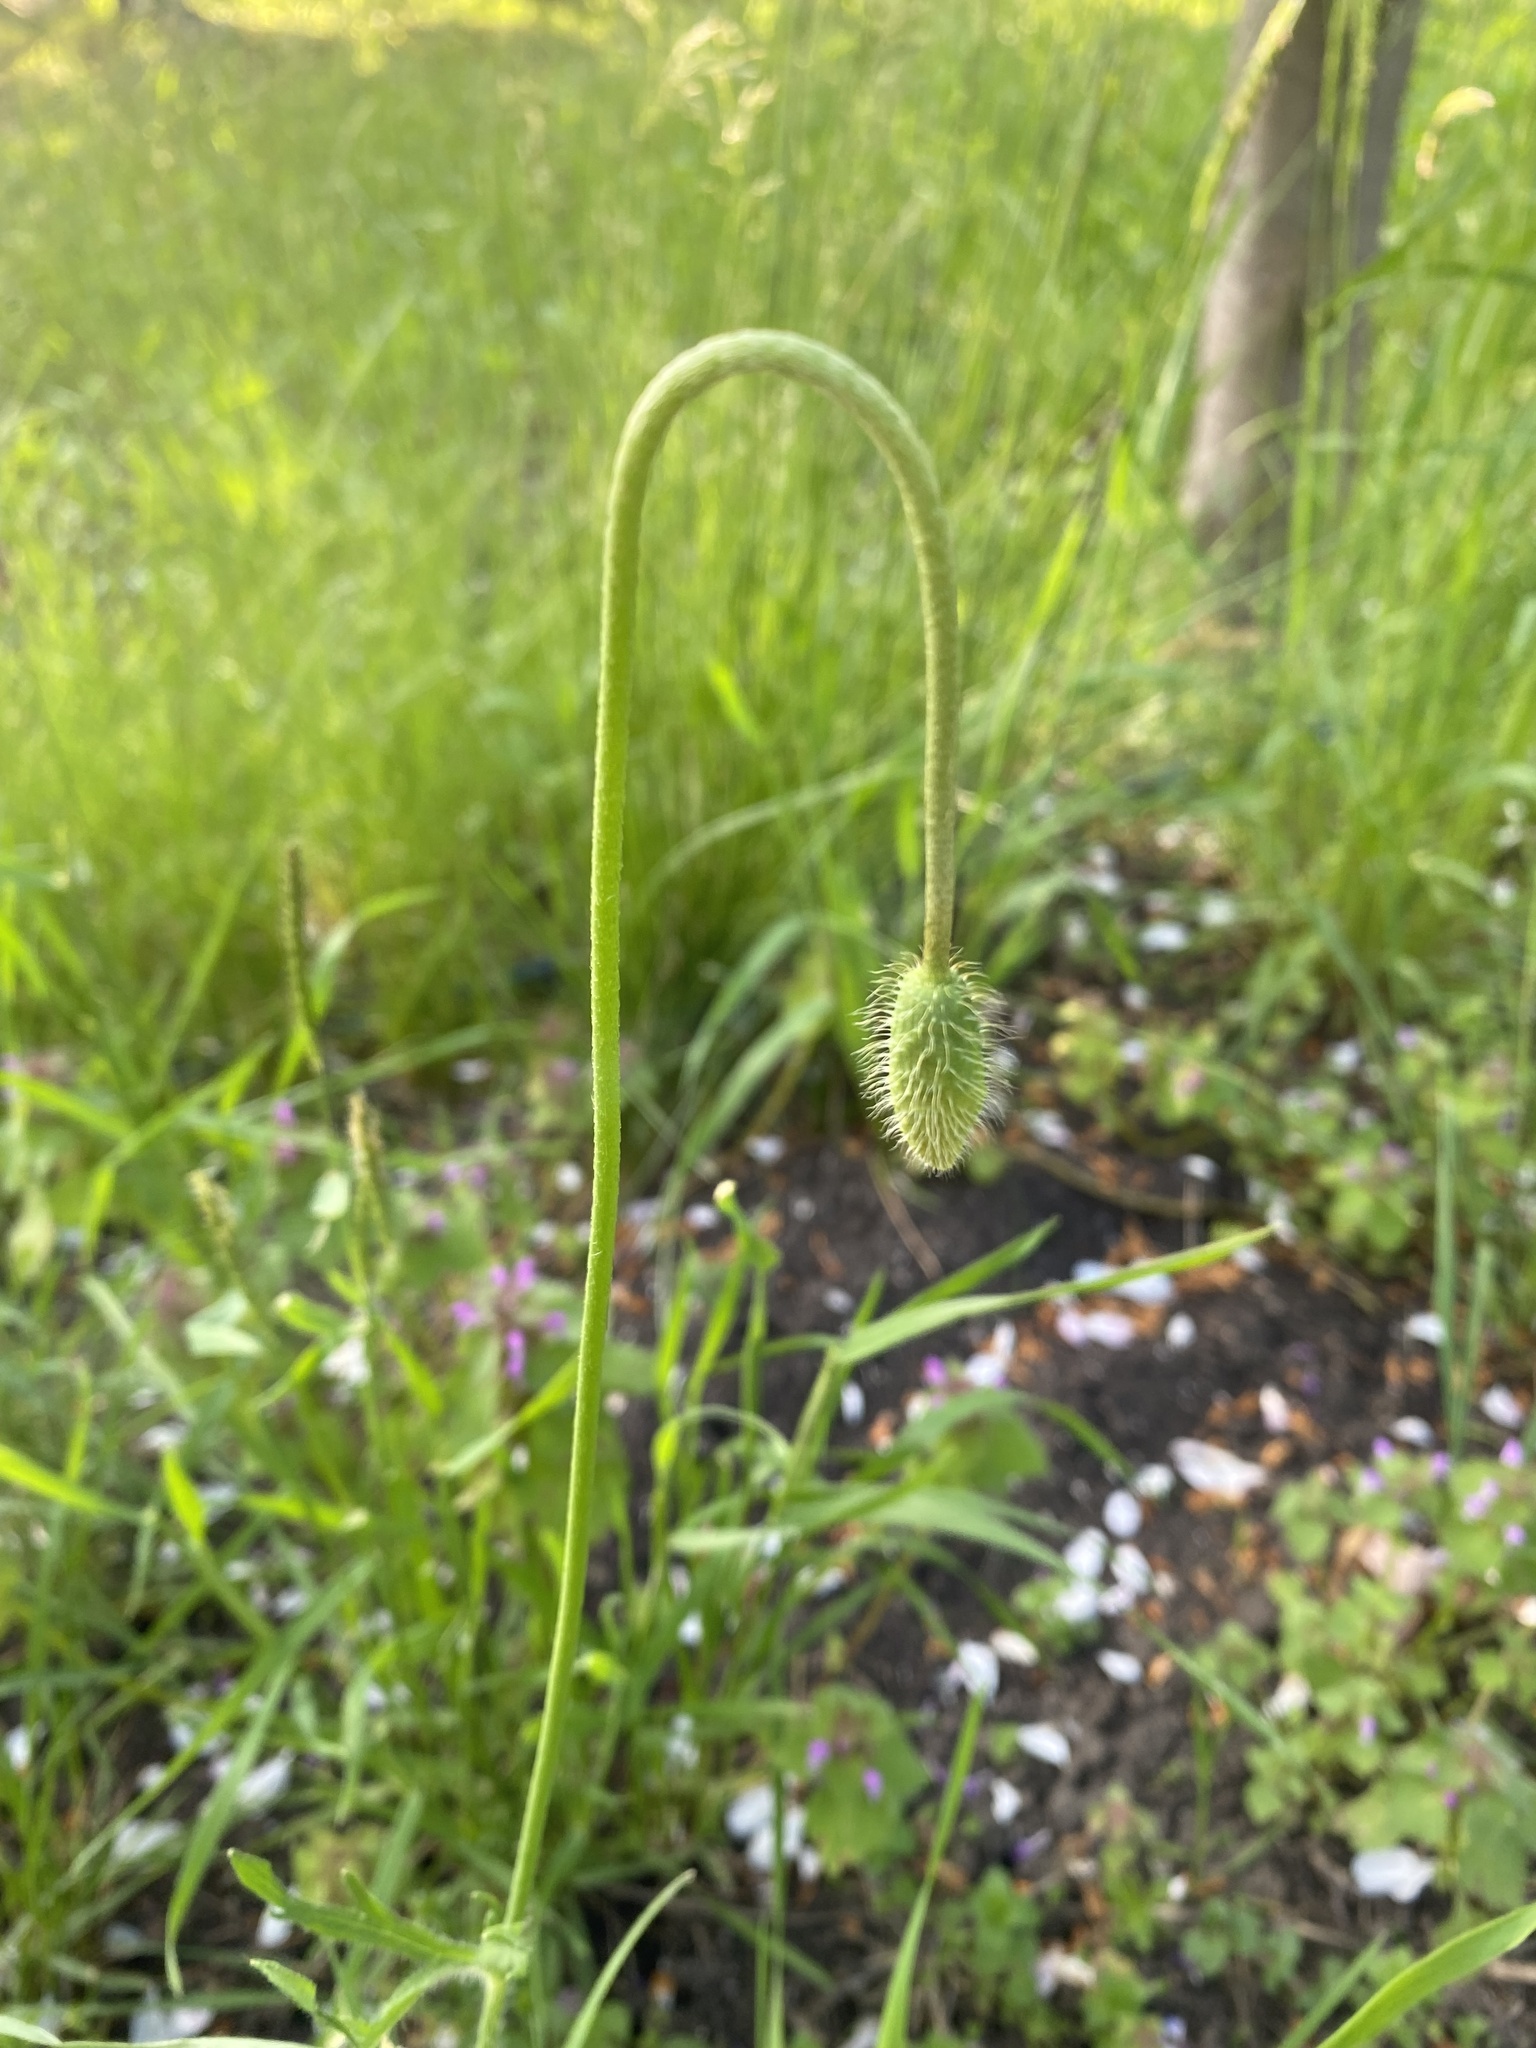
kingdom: Plantae
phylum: Tracheophyta
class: Magnoliopsida
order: Ranunculales
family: Papaveraceae
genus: Papaver
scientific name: Papaver dubium
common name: Long-headed poppy
